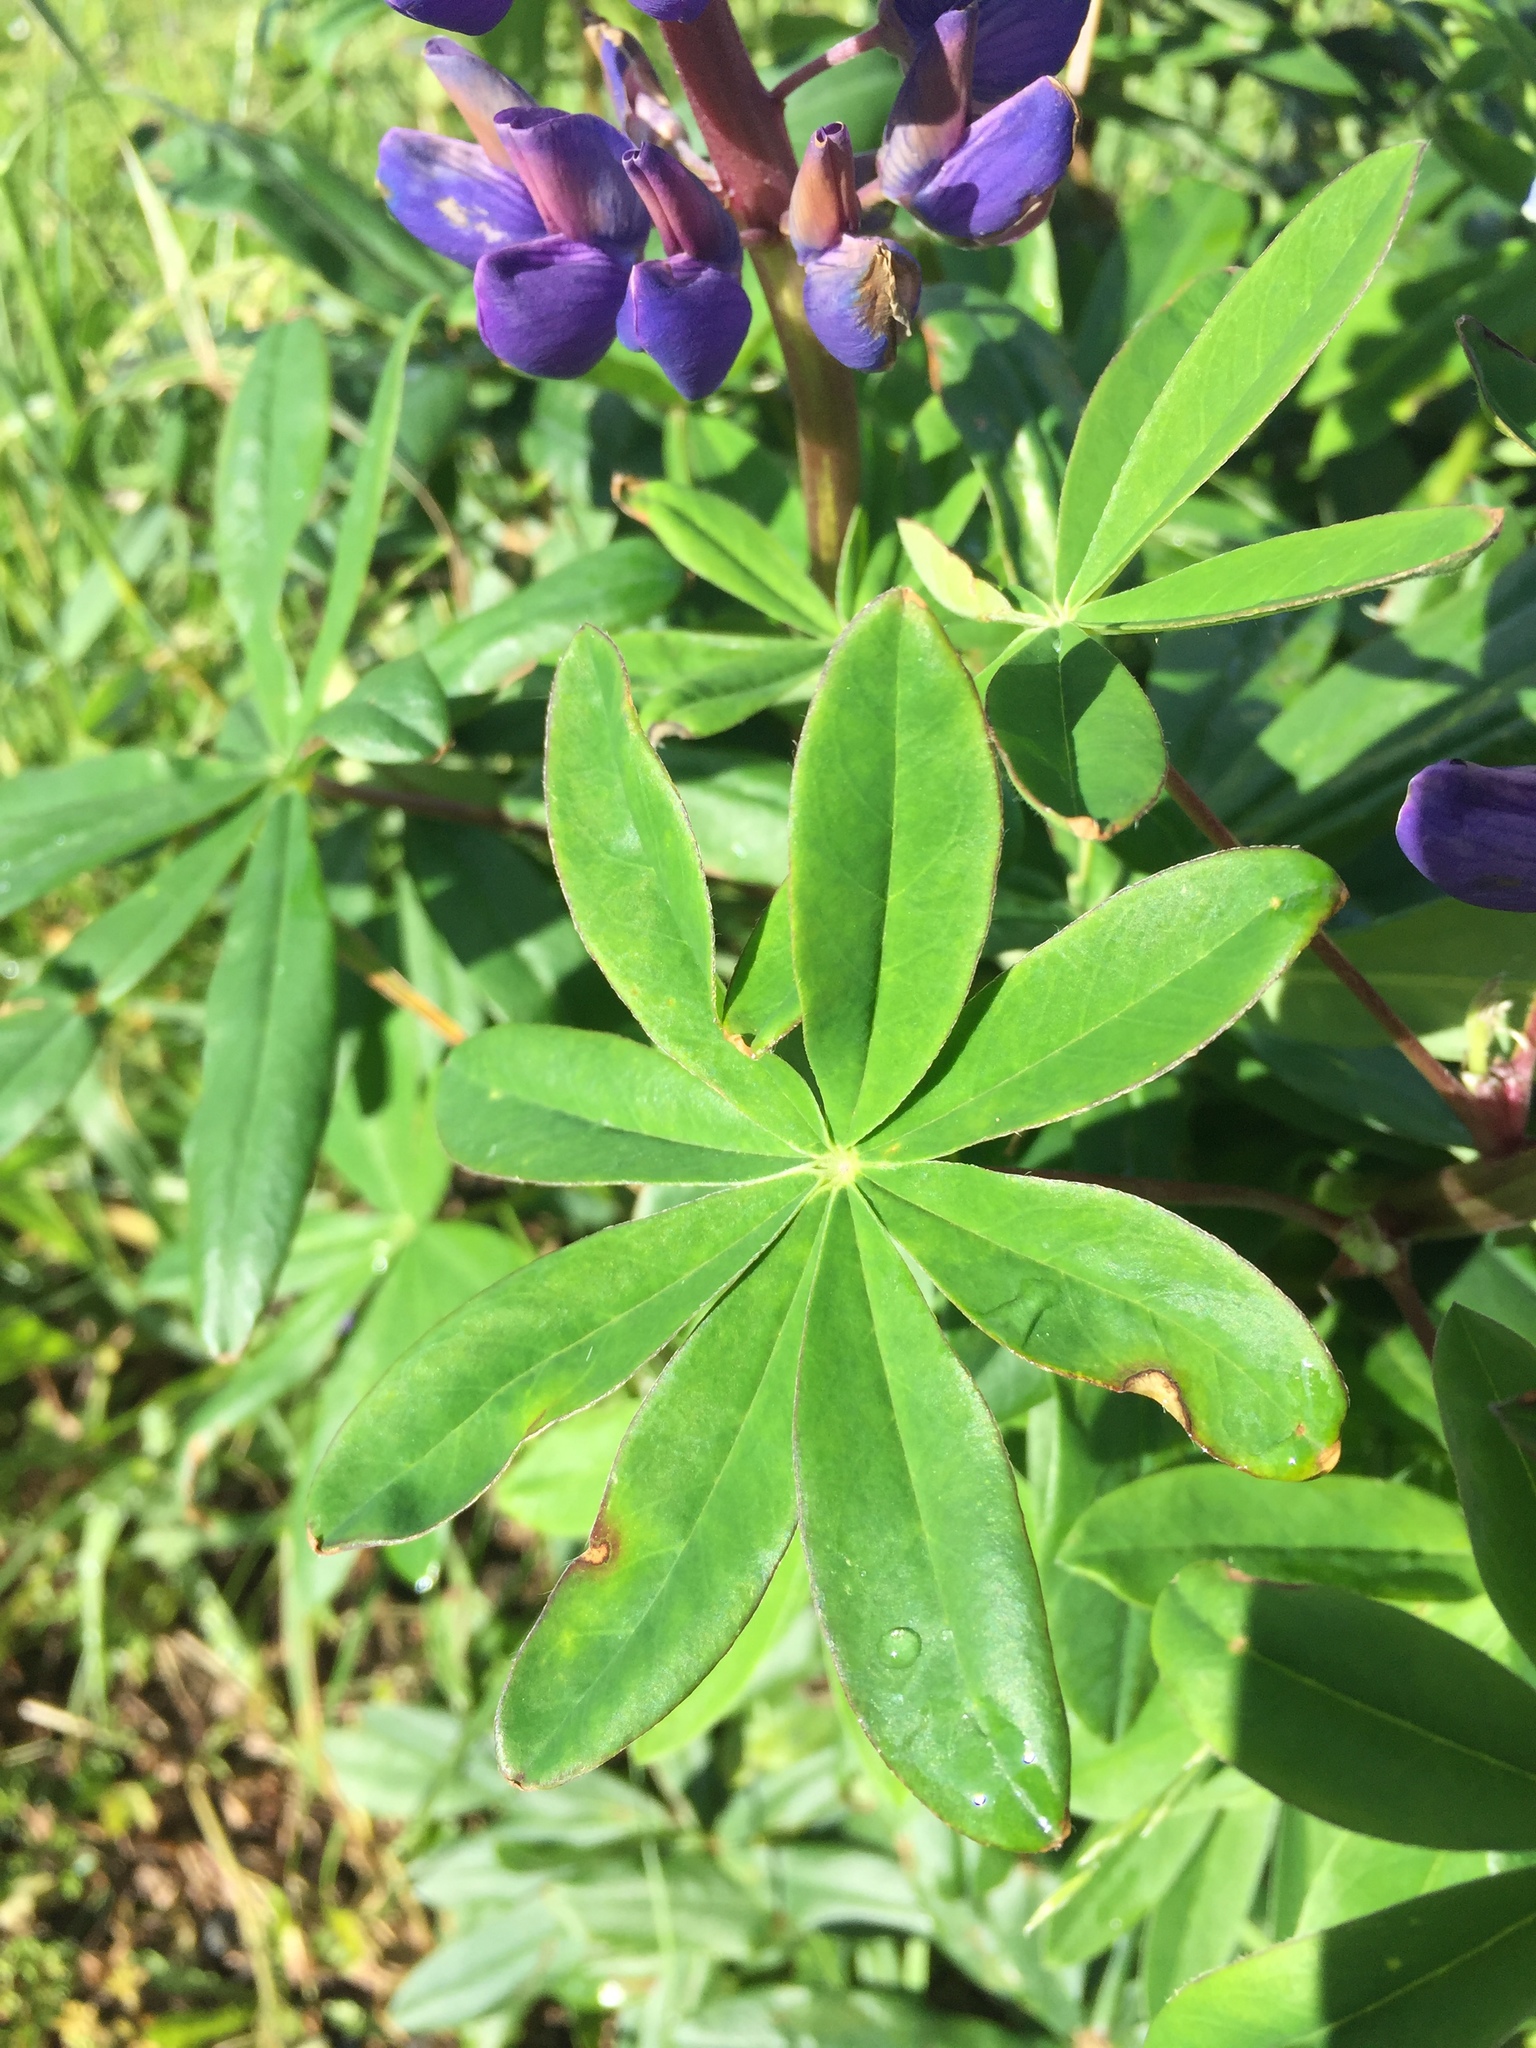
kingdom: Plantae
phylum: Tracheophyta
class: Magnoliopsida
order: Fabales
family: Fabaceae
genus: Lupinus
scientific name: Lupinus polyphyllus
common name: Garden lupin
